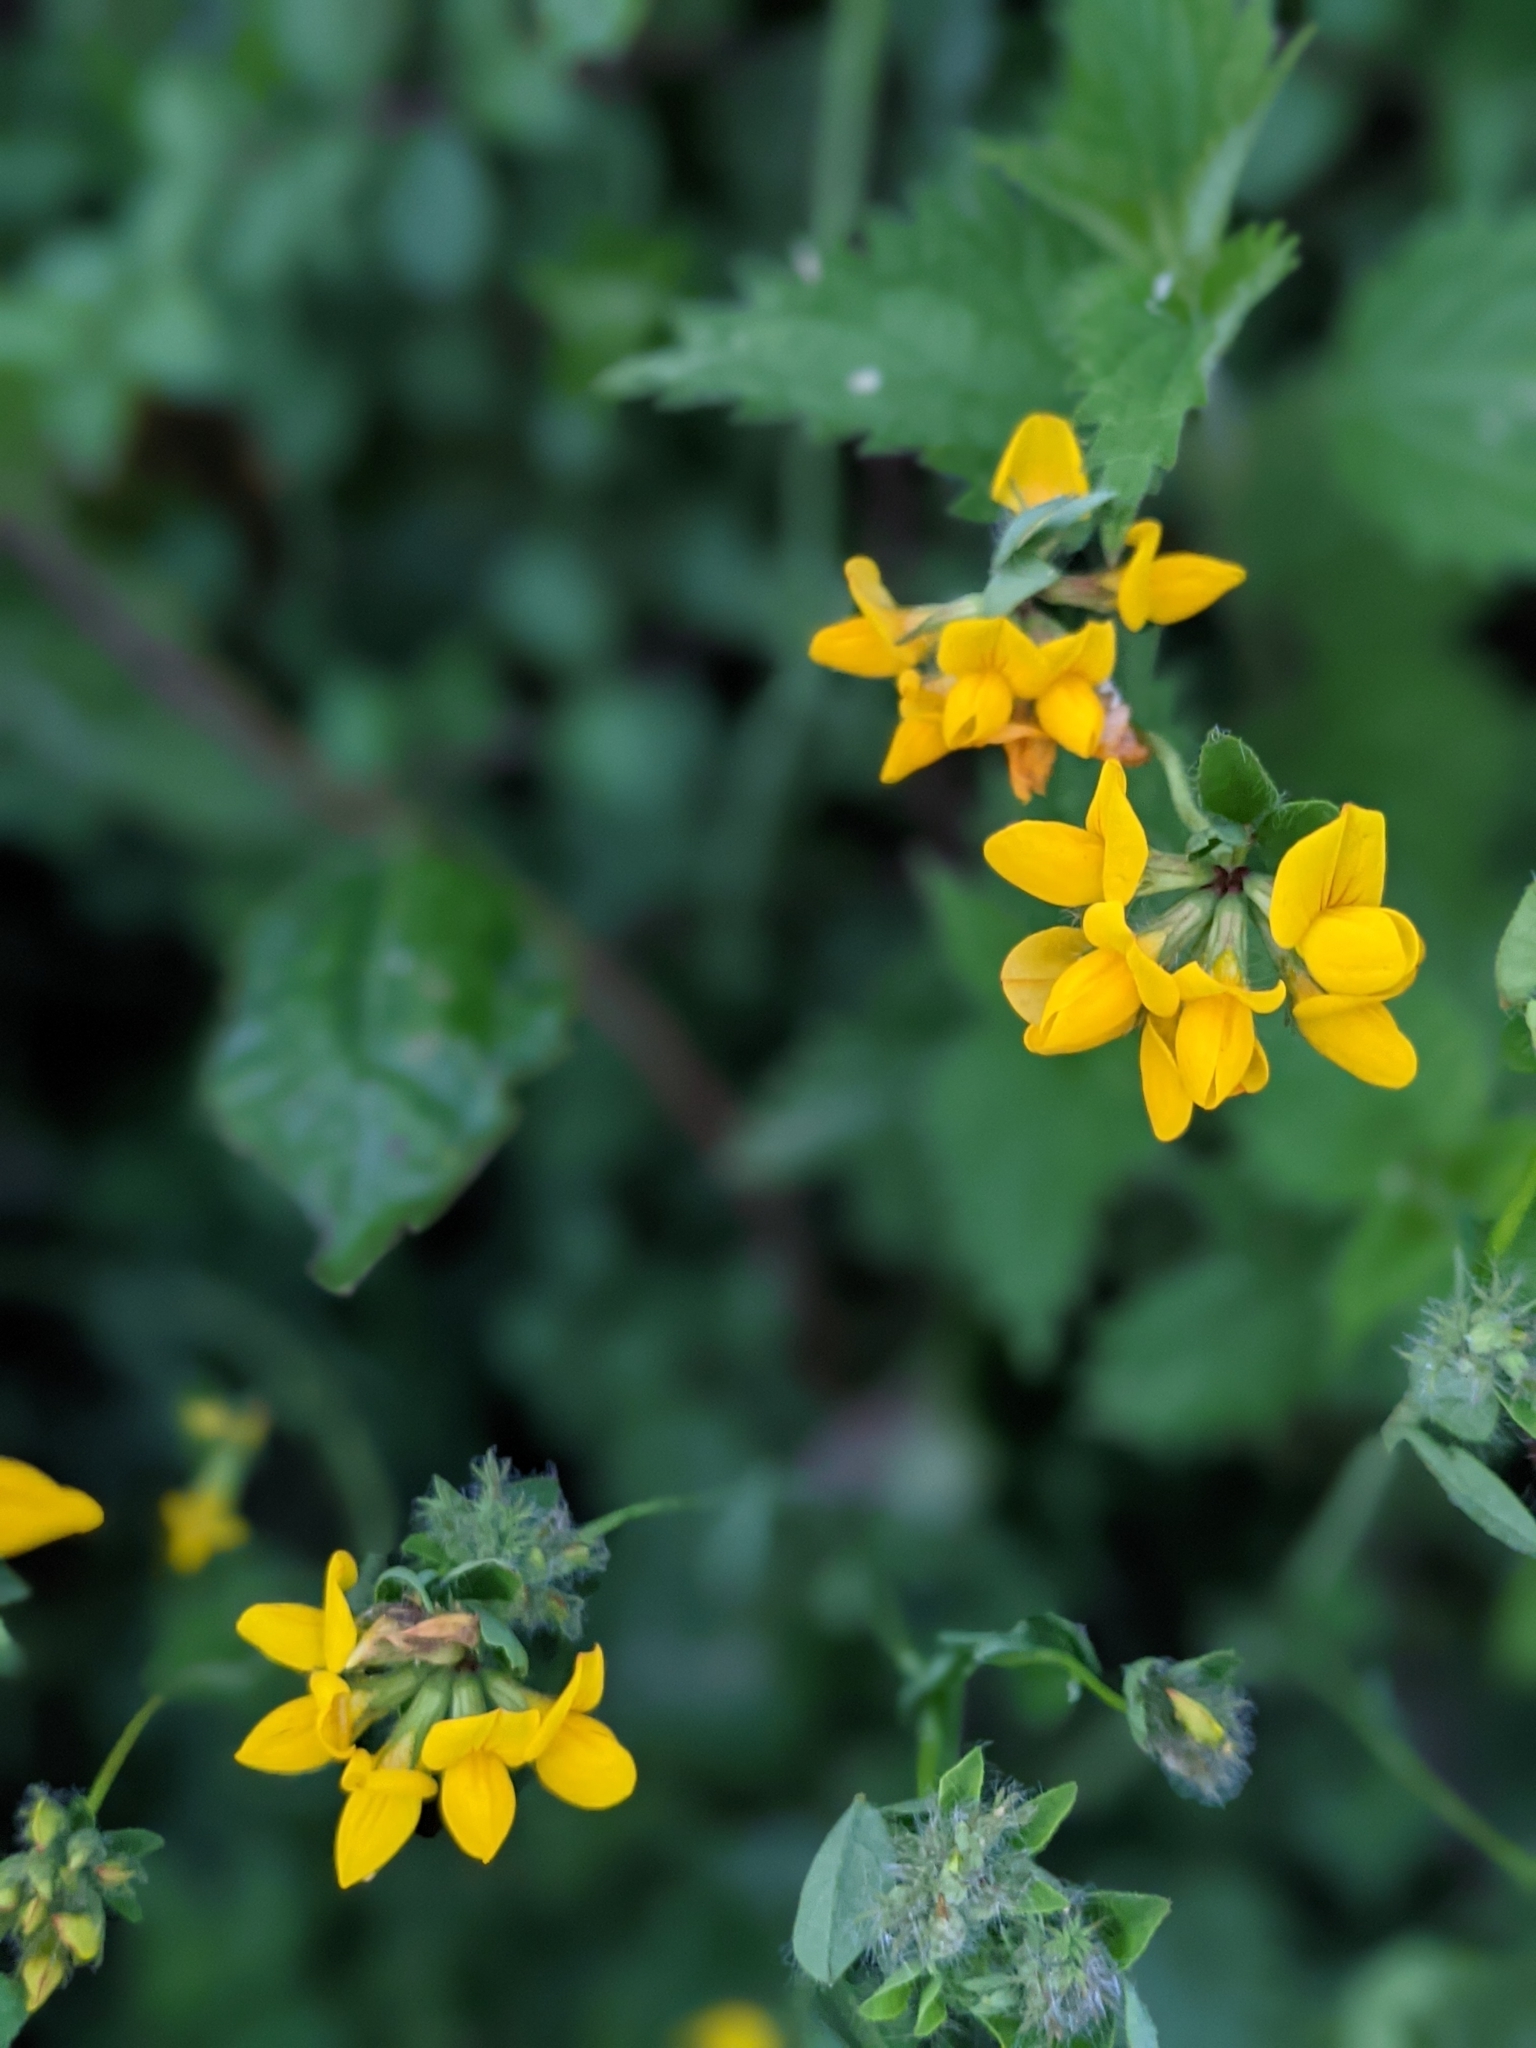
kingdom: Plantae
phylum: Tracheophyta
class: Magnoliopsida
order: Fabales
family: Fabaceae
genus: Lotus
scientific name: Lotus pedunculatus
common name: Greater birdsfoot-trefoil
